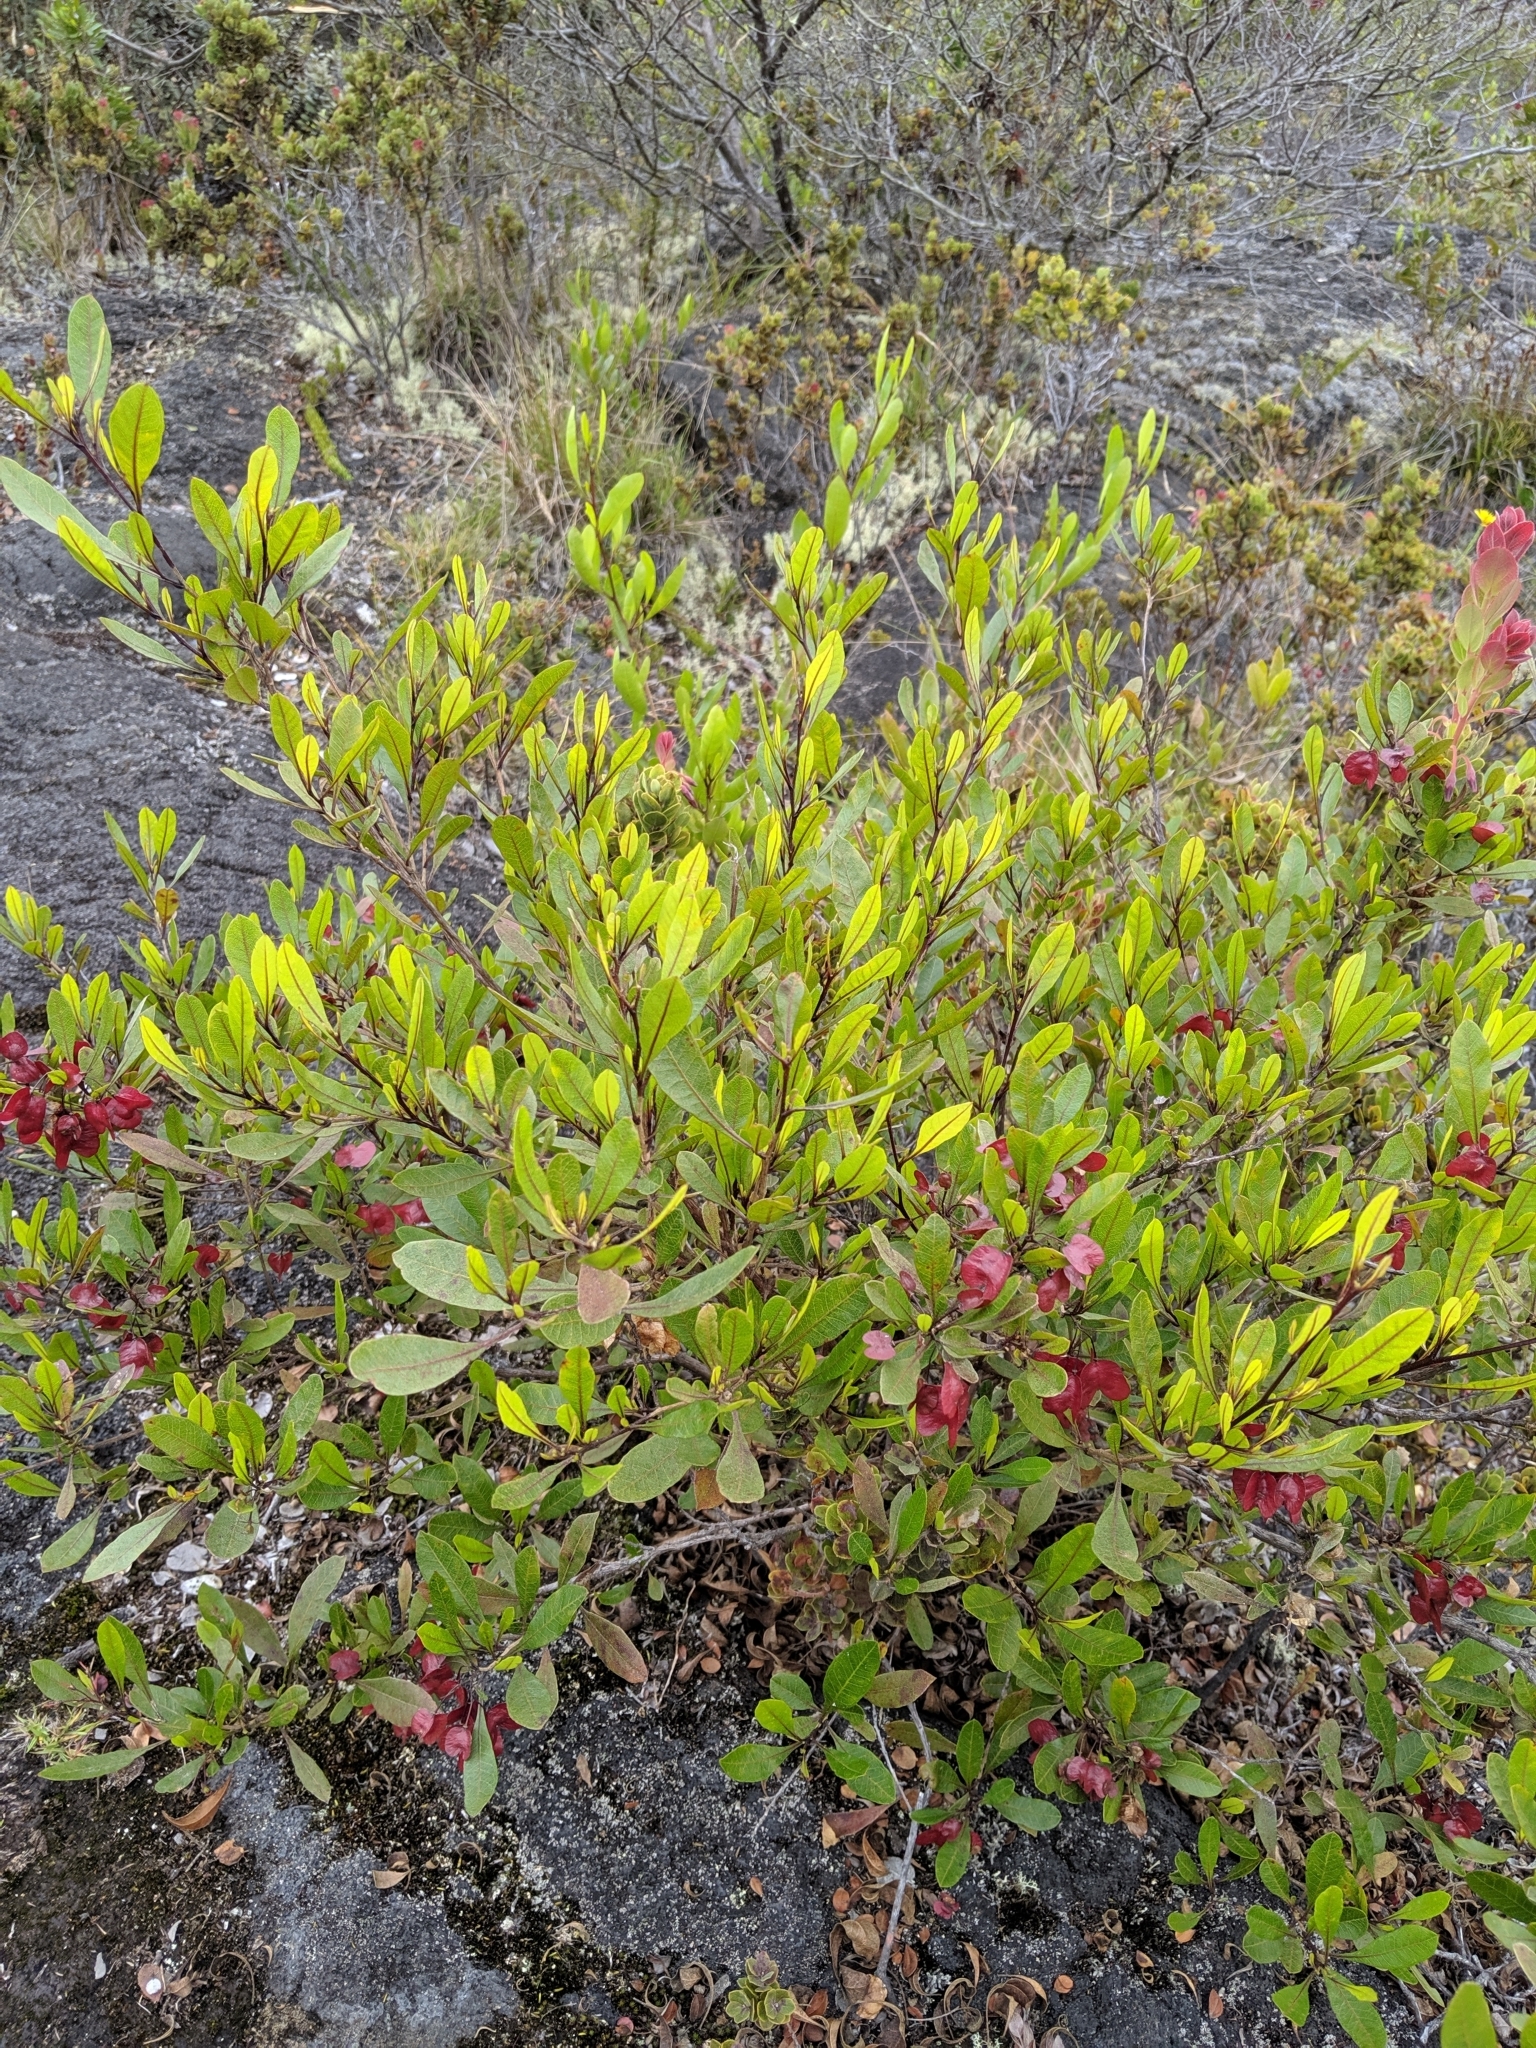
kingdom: Plantae
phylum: Tracheophyta
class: Magnoliopsida
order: Sapindales
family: Sapindaceae
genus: Dodonaea
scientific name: Dodonaea viscosa
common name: Hopbush
